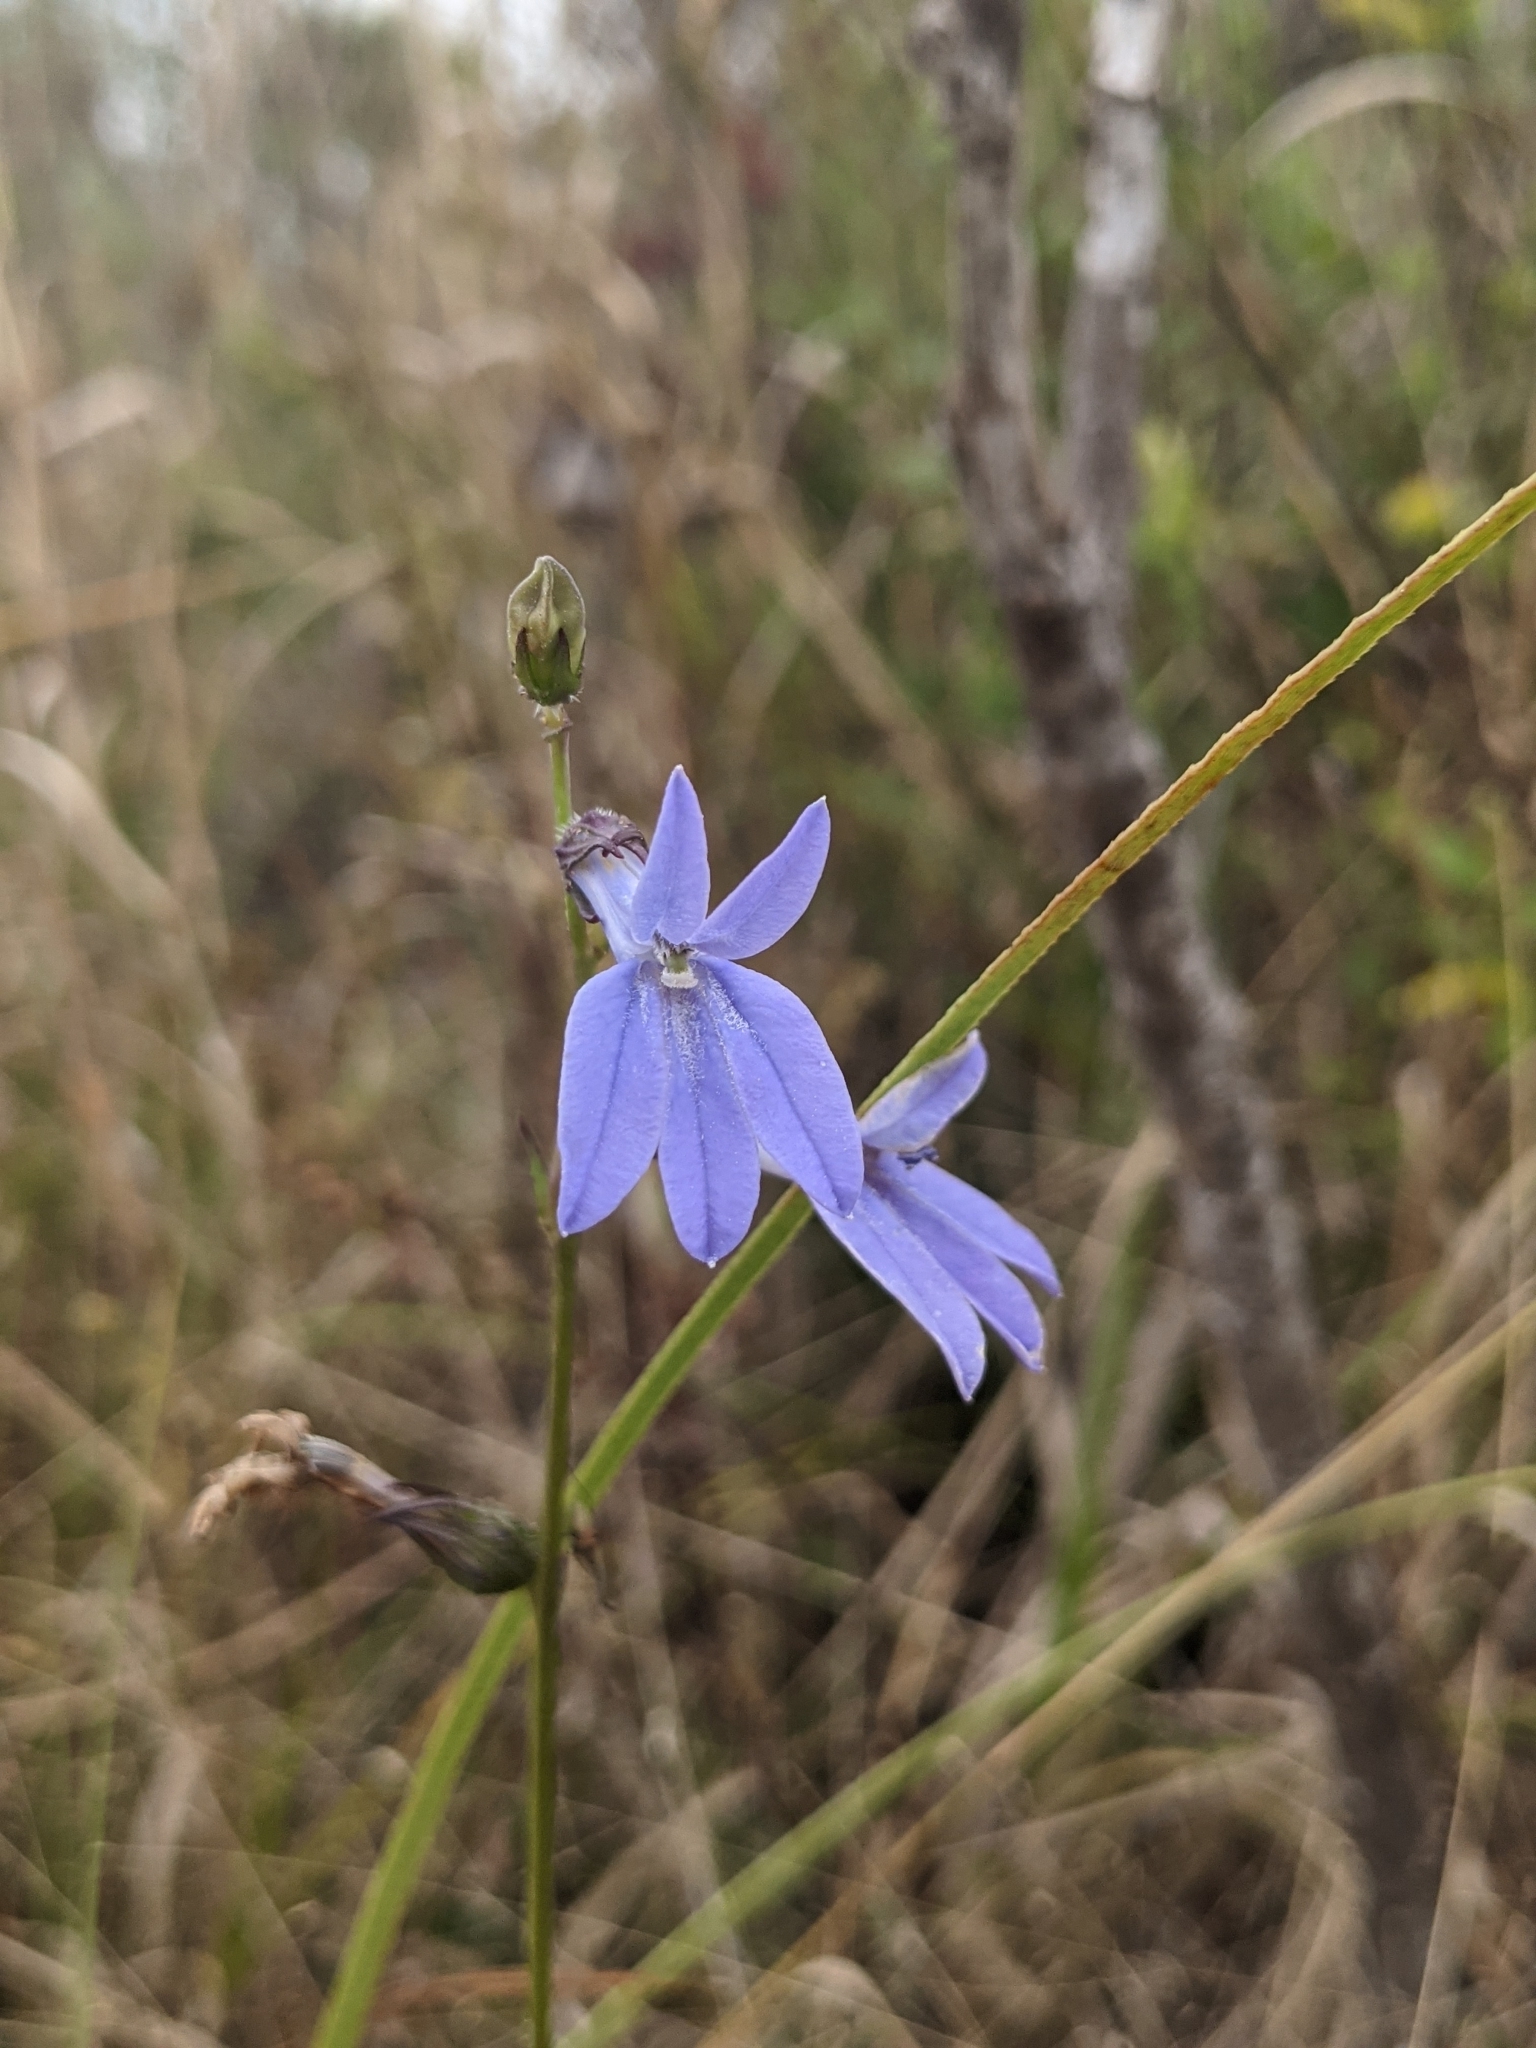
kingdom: Plantae
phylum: Tracheophyta
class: Magnoliopsida
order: Asterales
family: Campanulaceae
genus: Lobelia
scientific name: Lobelia glandulosa
